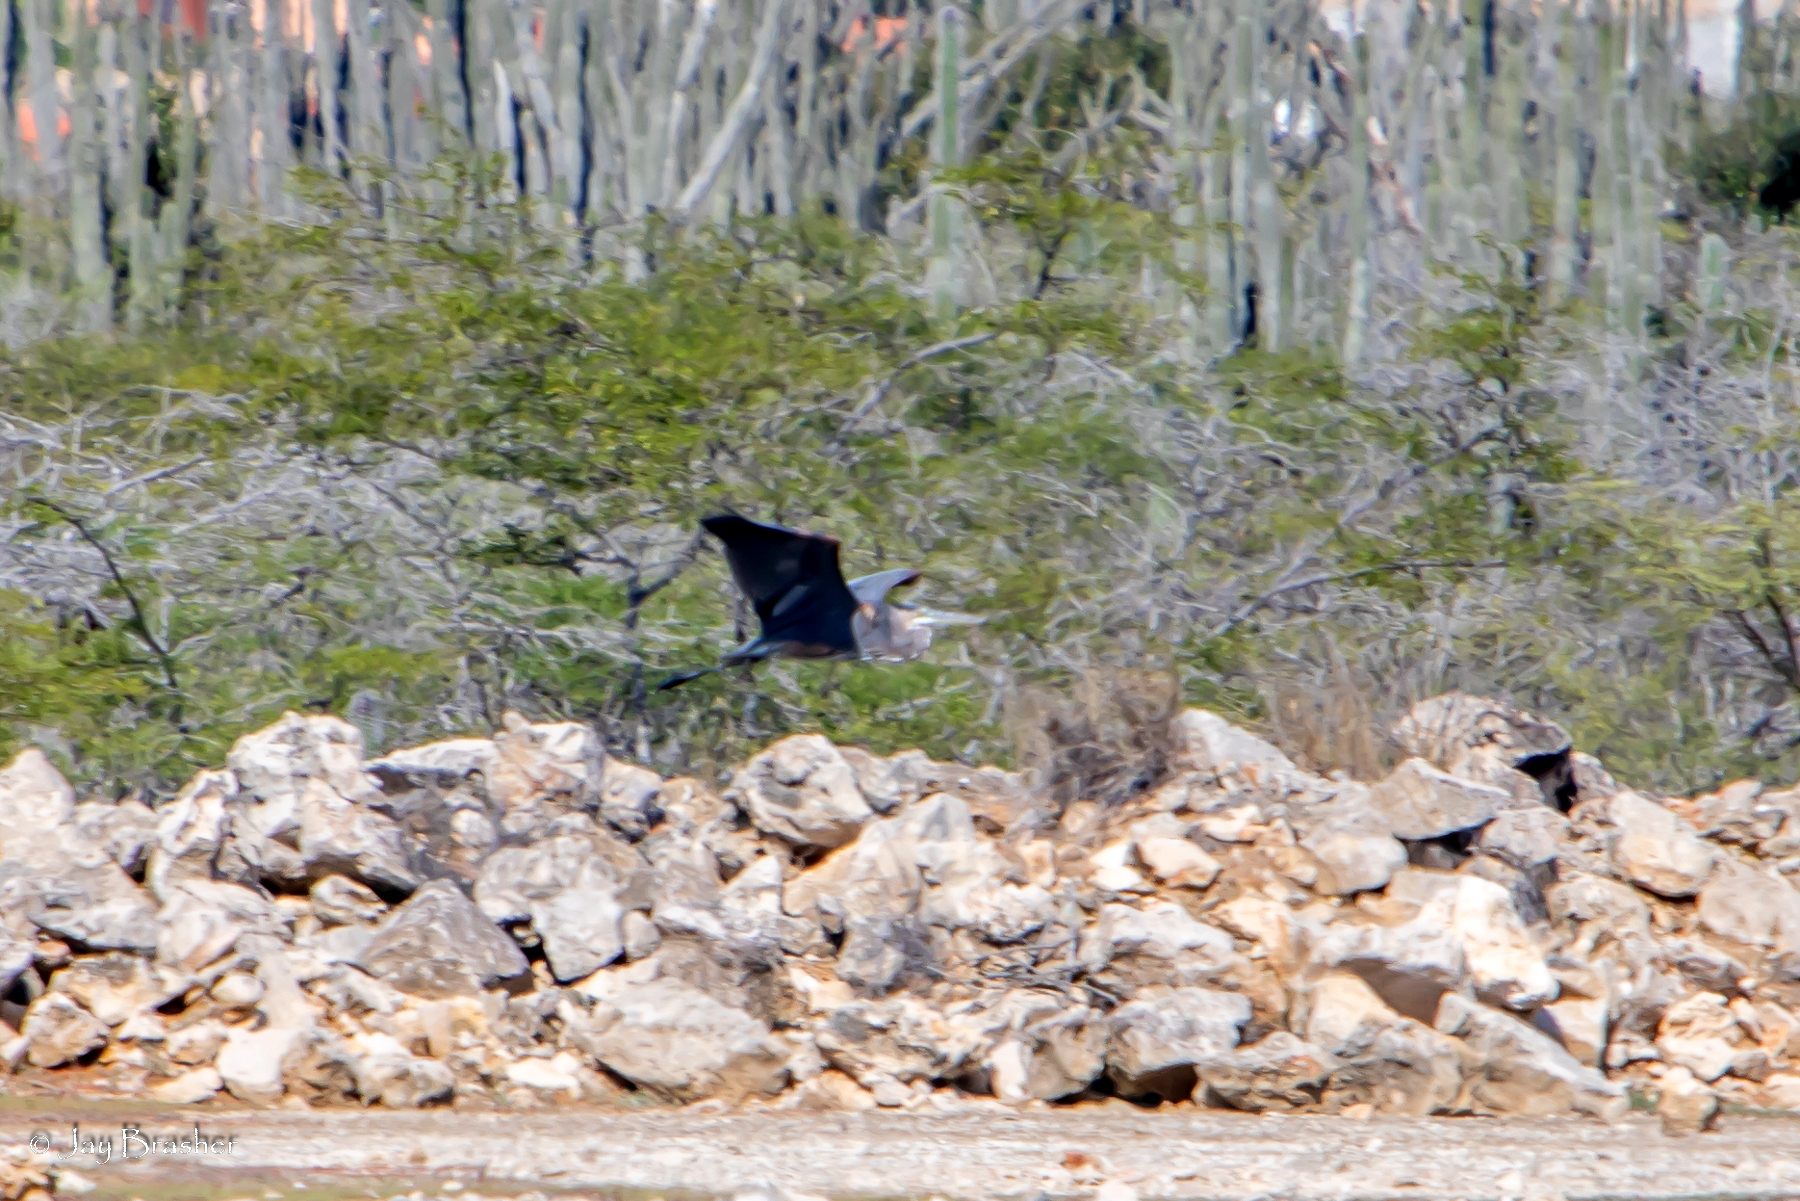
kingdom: Animalia
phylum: Chordata
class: Aves
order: Pelecaniformes
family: Ardeidae
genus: Ardea
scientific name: Ardea herodias
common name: Great blue heron
